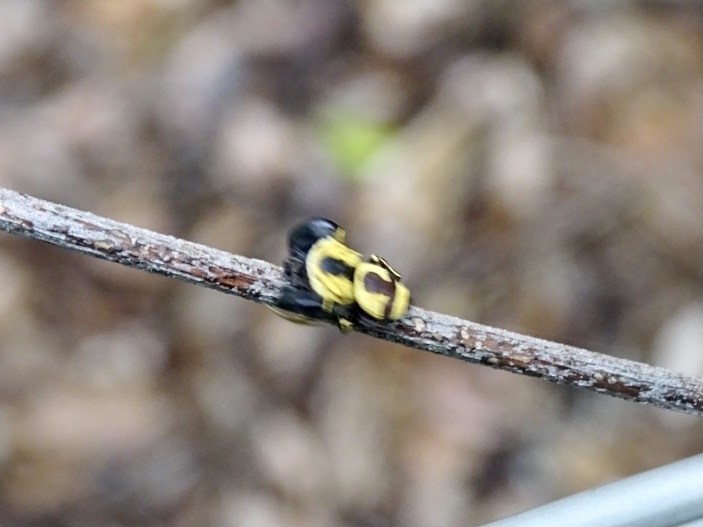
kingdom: Animalia
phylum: Arthropoda
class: Arachnida
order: Araneae
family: Salticidae
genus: Rhene
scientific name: Rhene flavicomans
